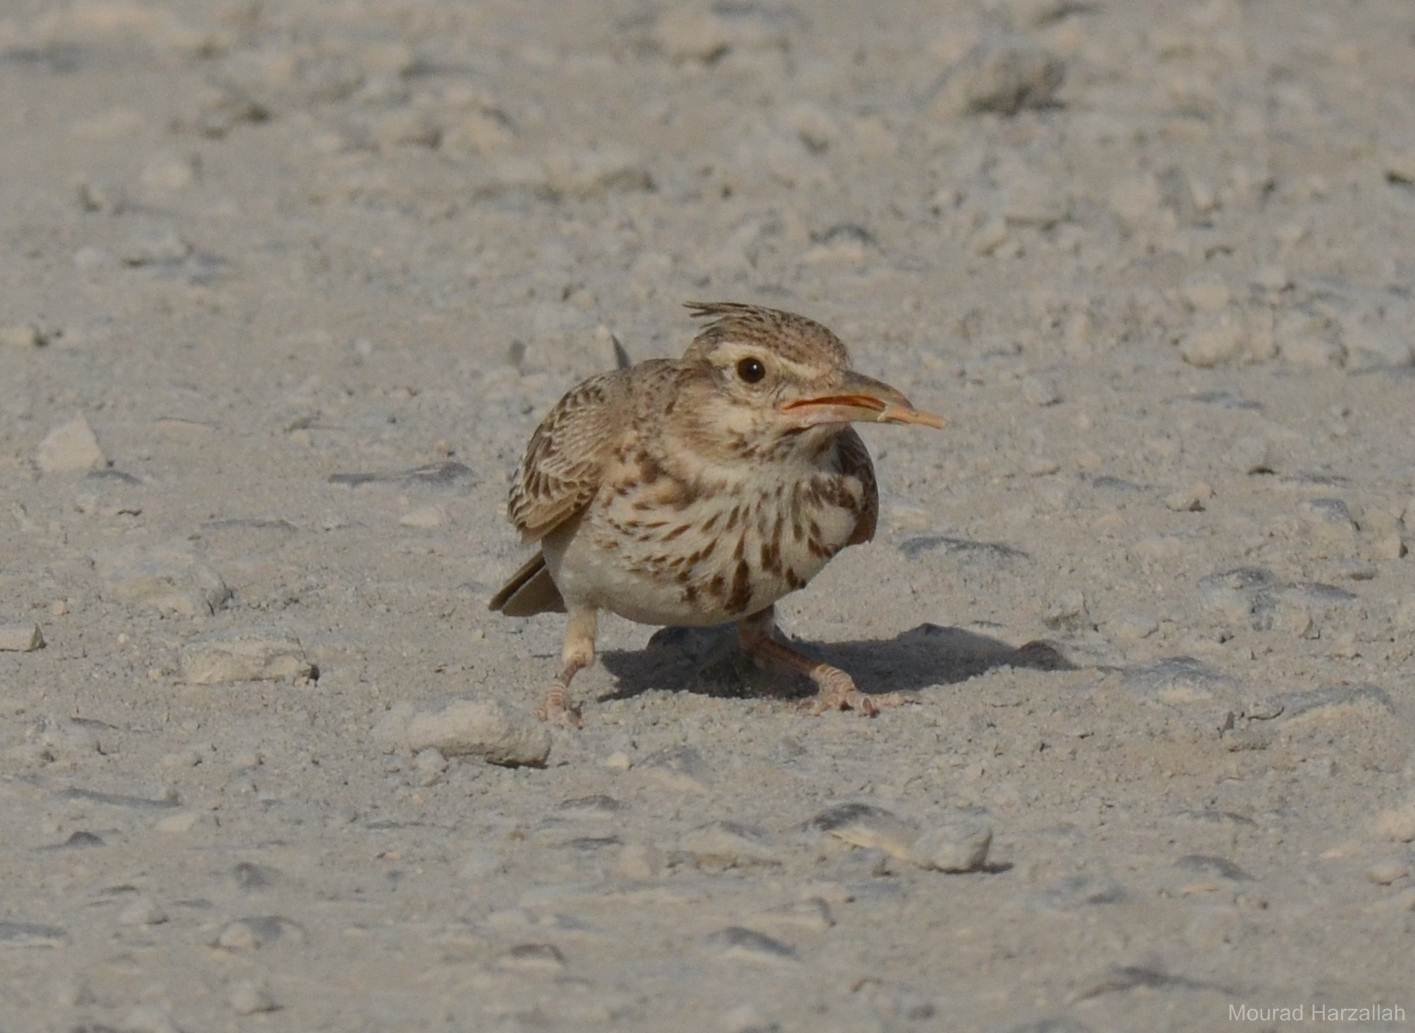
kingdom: Animalia
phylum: Chordata
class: Aves
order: Passeriformes
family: Alaudidae
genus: Galerida
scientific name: Galerida cristata
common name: Crested lark
